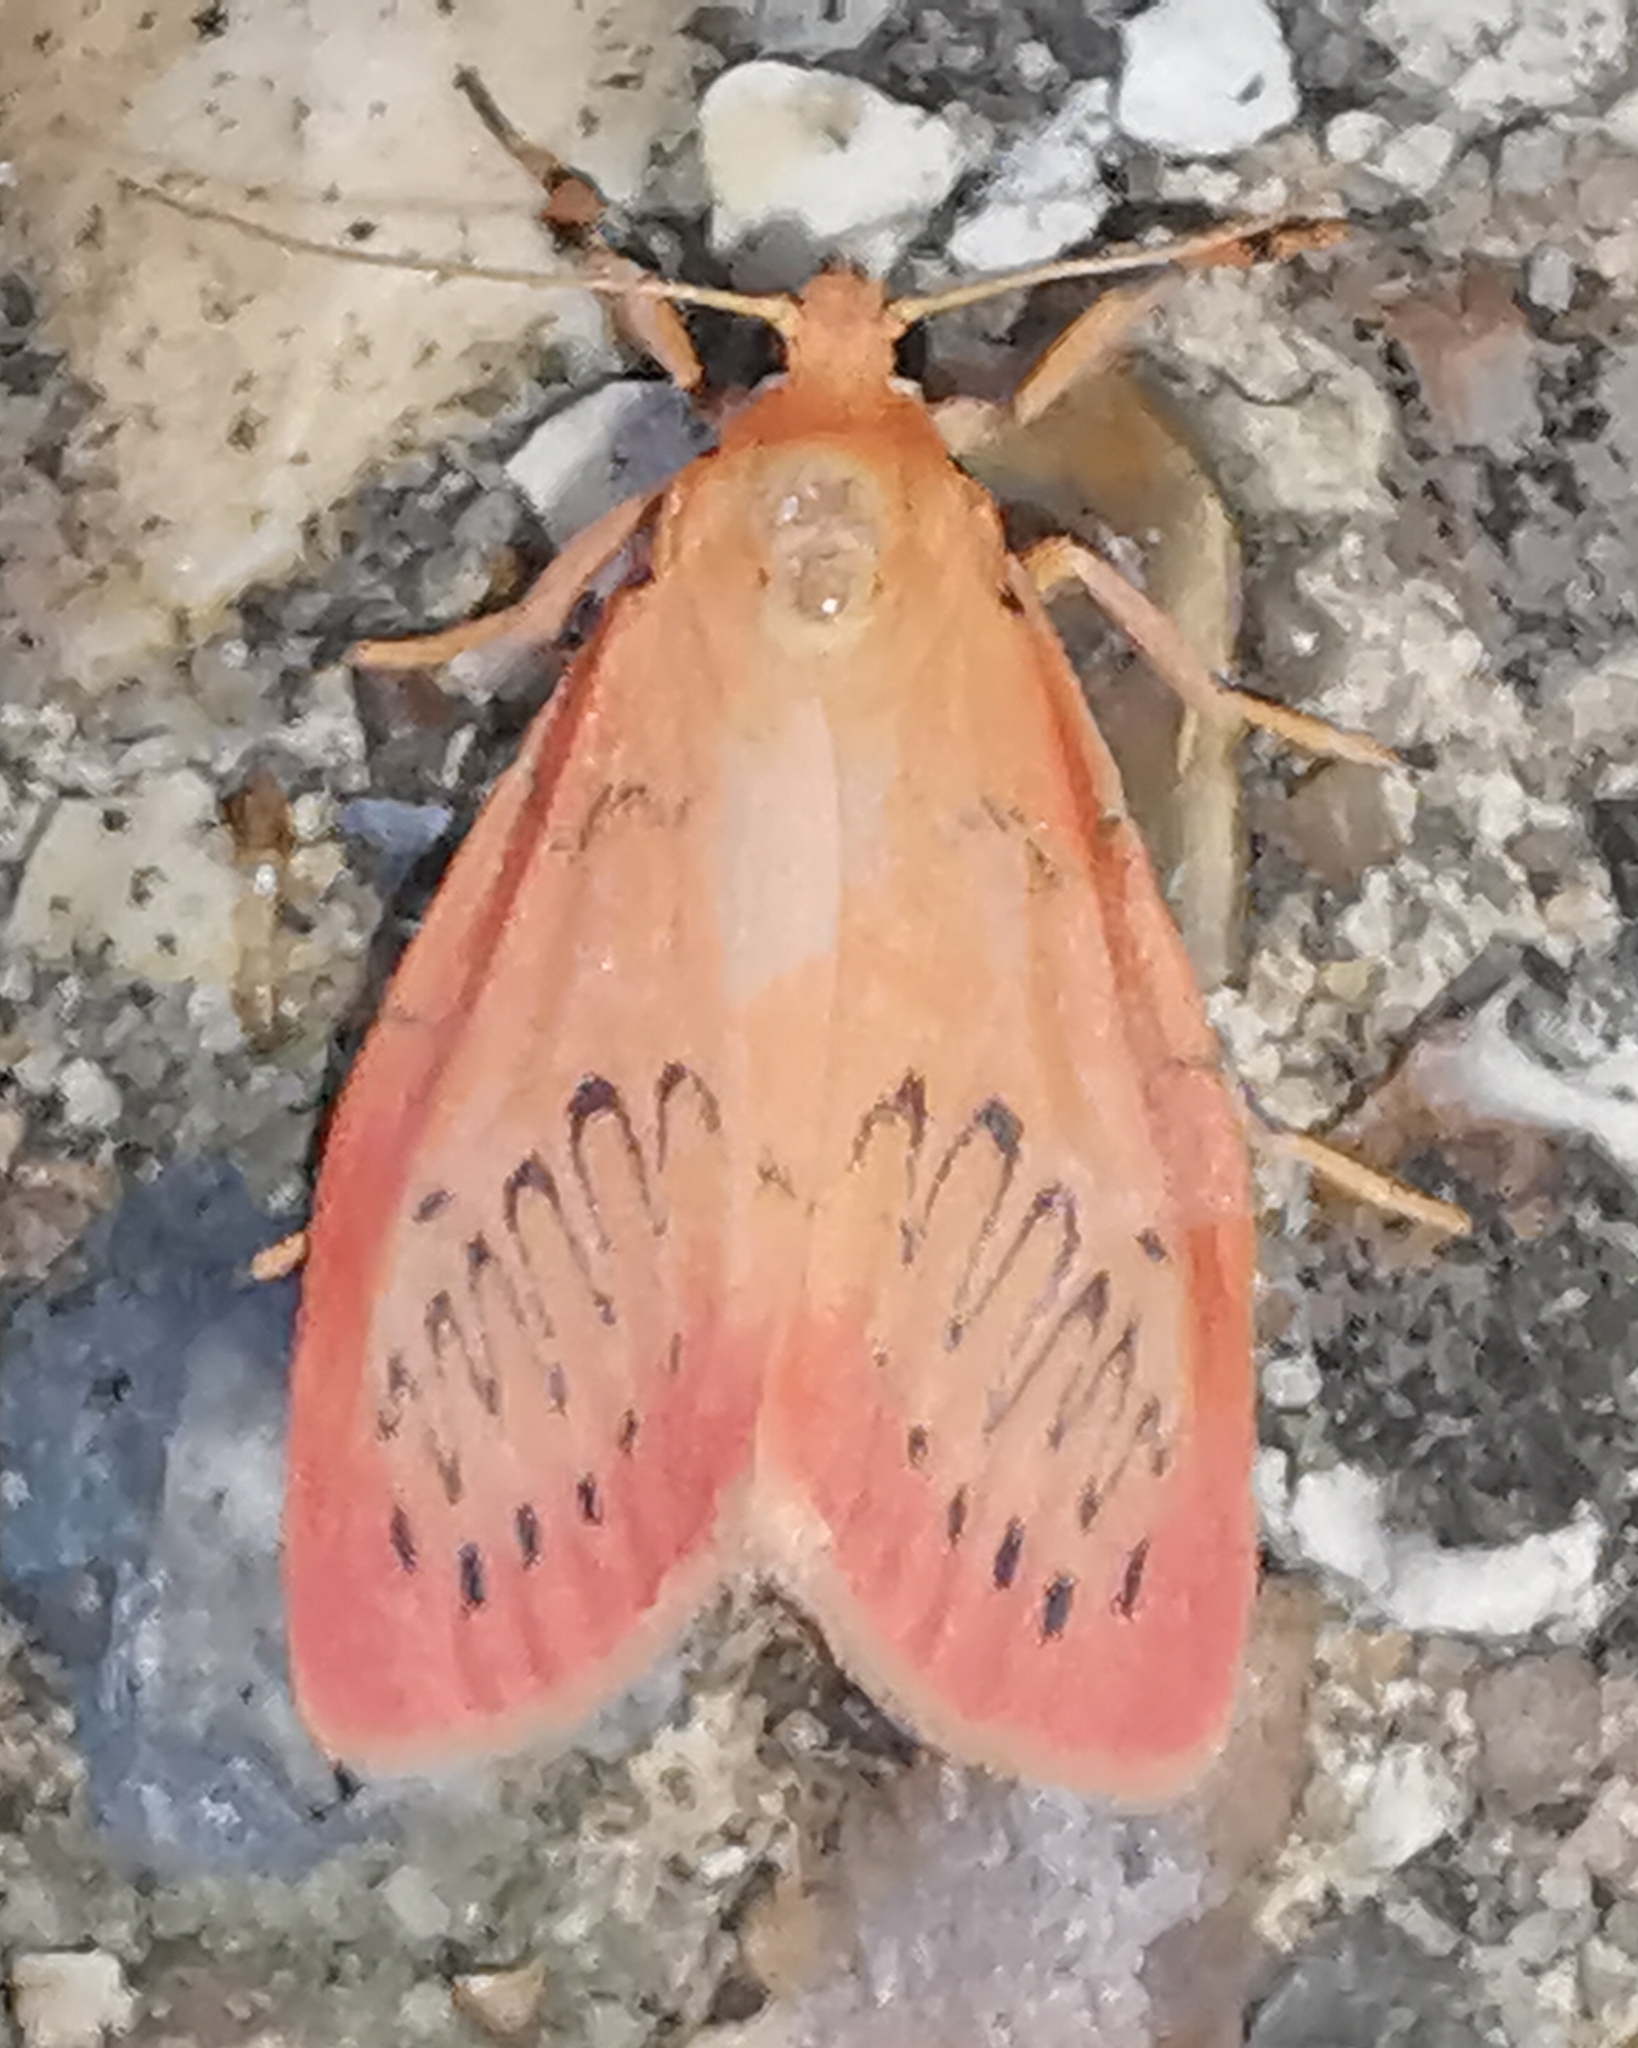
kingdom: Animalia
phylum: Arthropoda
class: Insecta
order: Lepidoptera
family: Erebidae
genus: Miltochrista
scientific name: Miltochrista miniata
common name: Rosy footman
